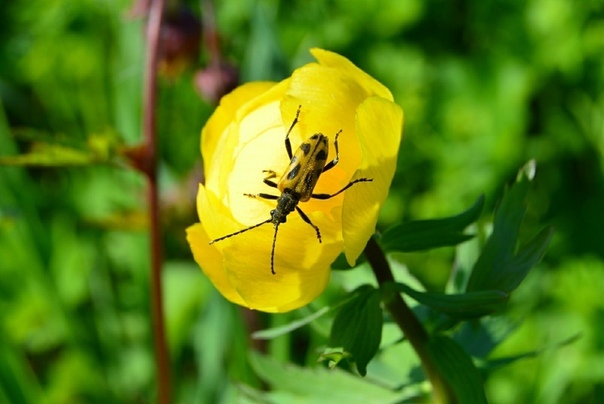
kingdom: Animalia
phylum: Arthropoda
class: Insecta
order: Coleoptera
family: Cerambycidae
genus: Brachyta
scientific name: Brachyta interrogationis
